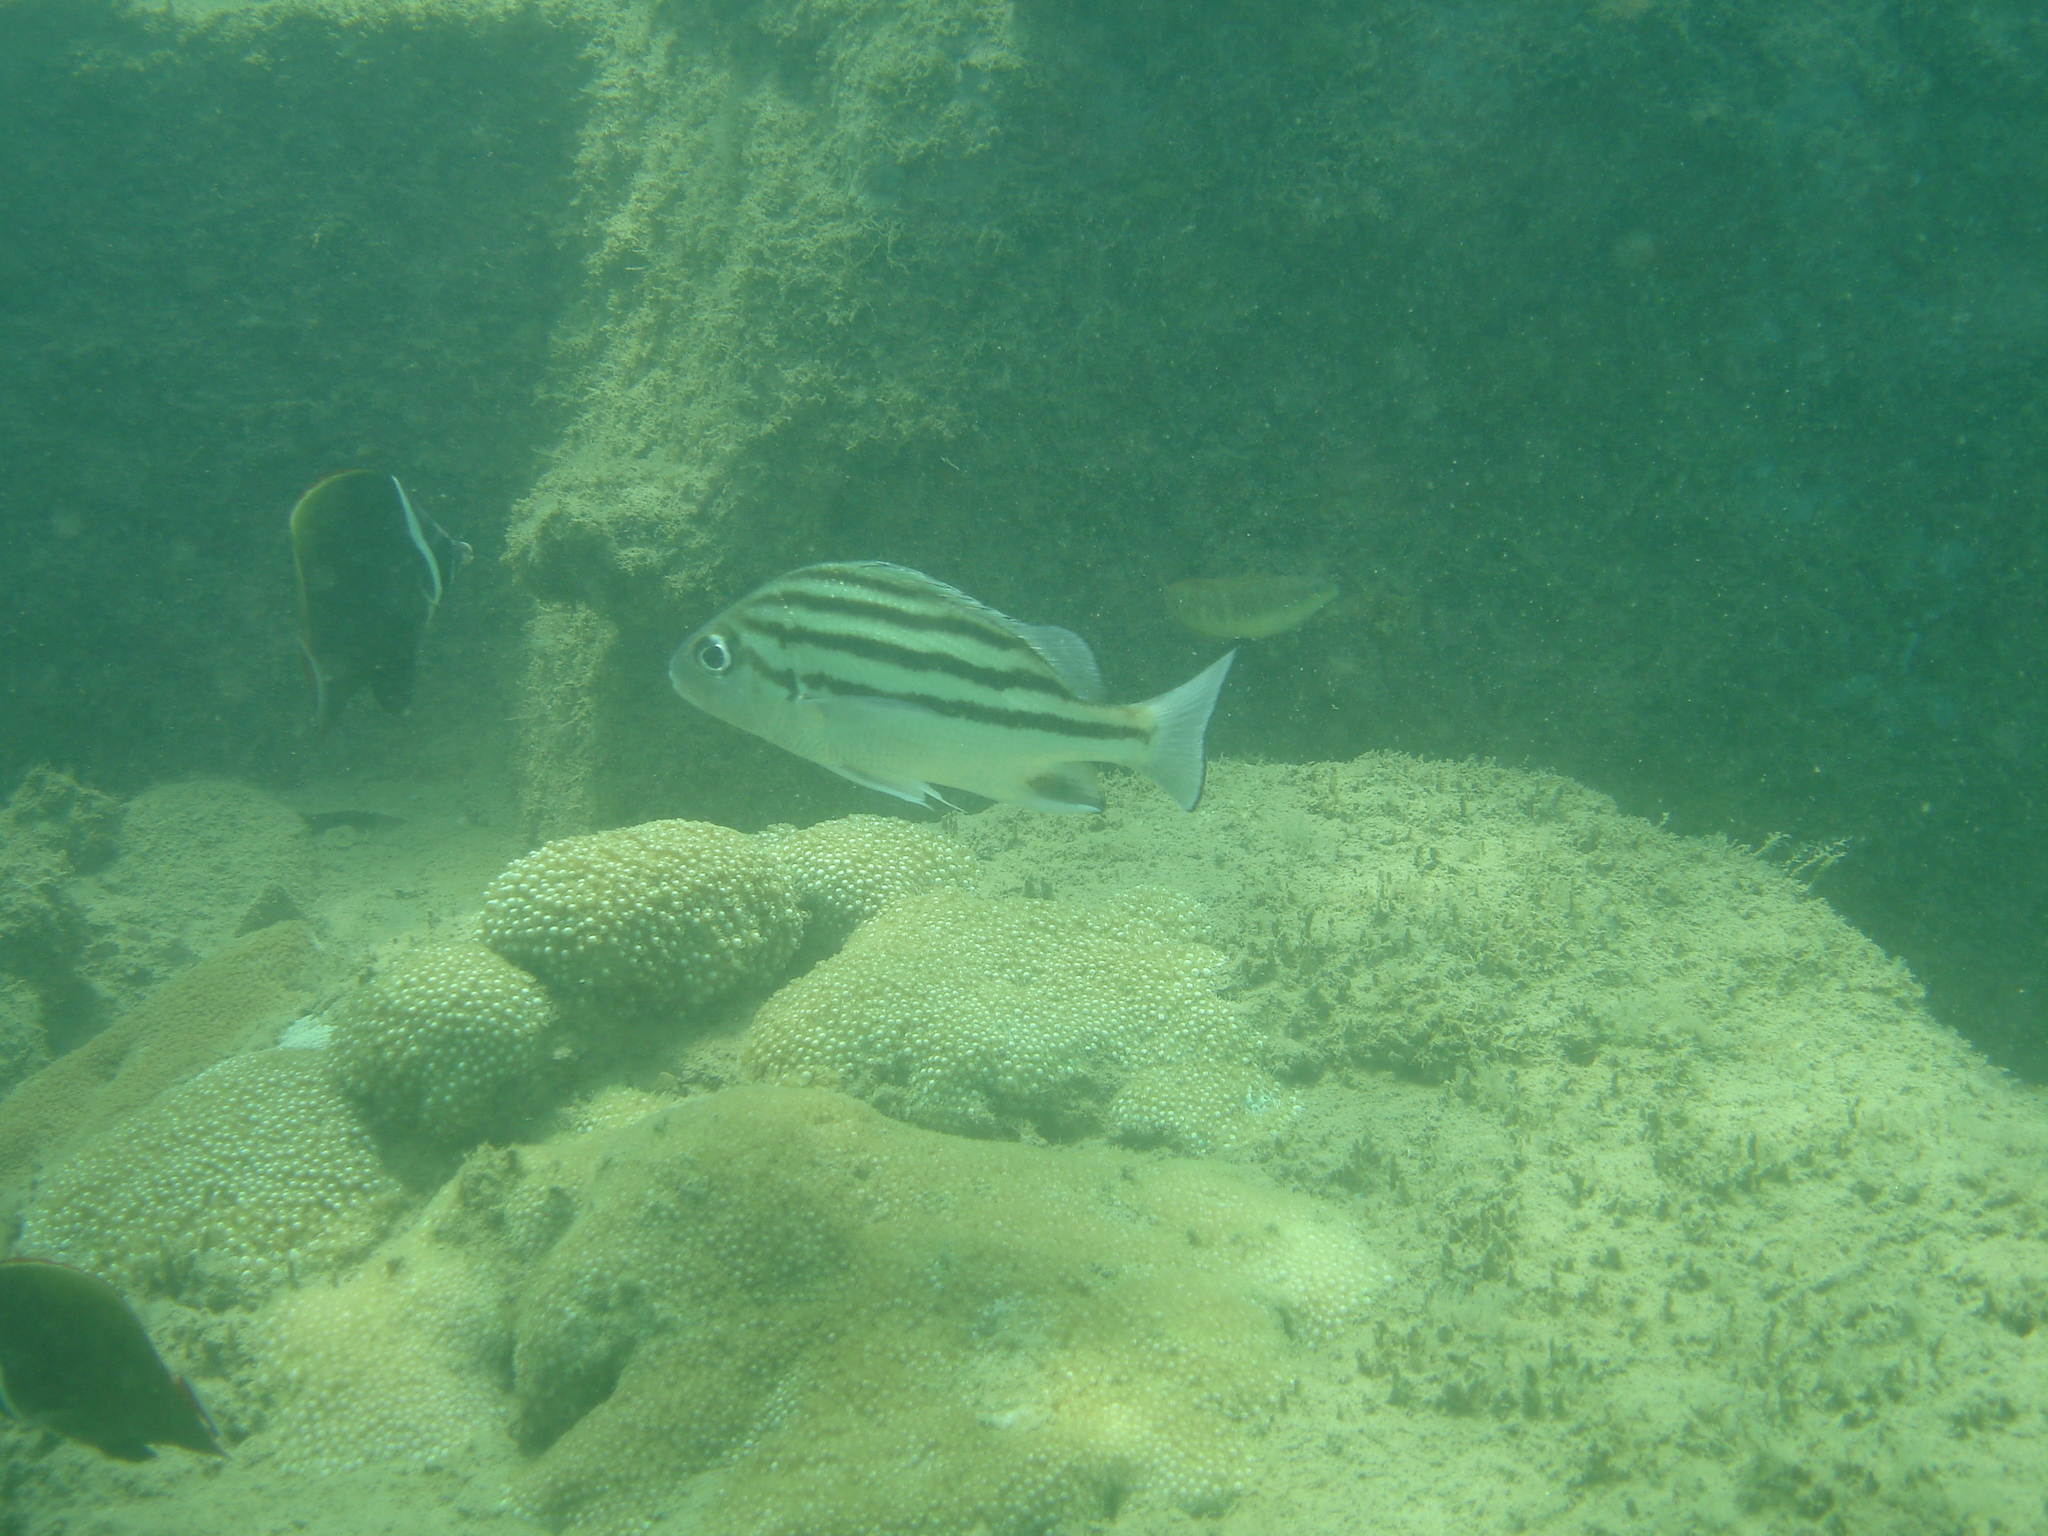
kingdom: Animalia
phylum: Chordata
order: Perciformes
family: Haemulidae
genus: Pomadasys
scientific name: Pomadasys andamanensis
